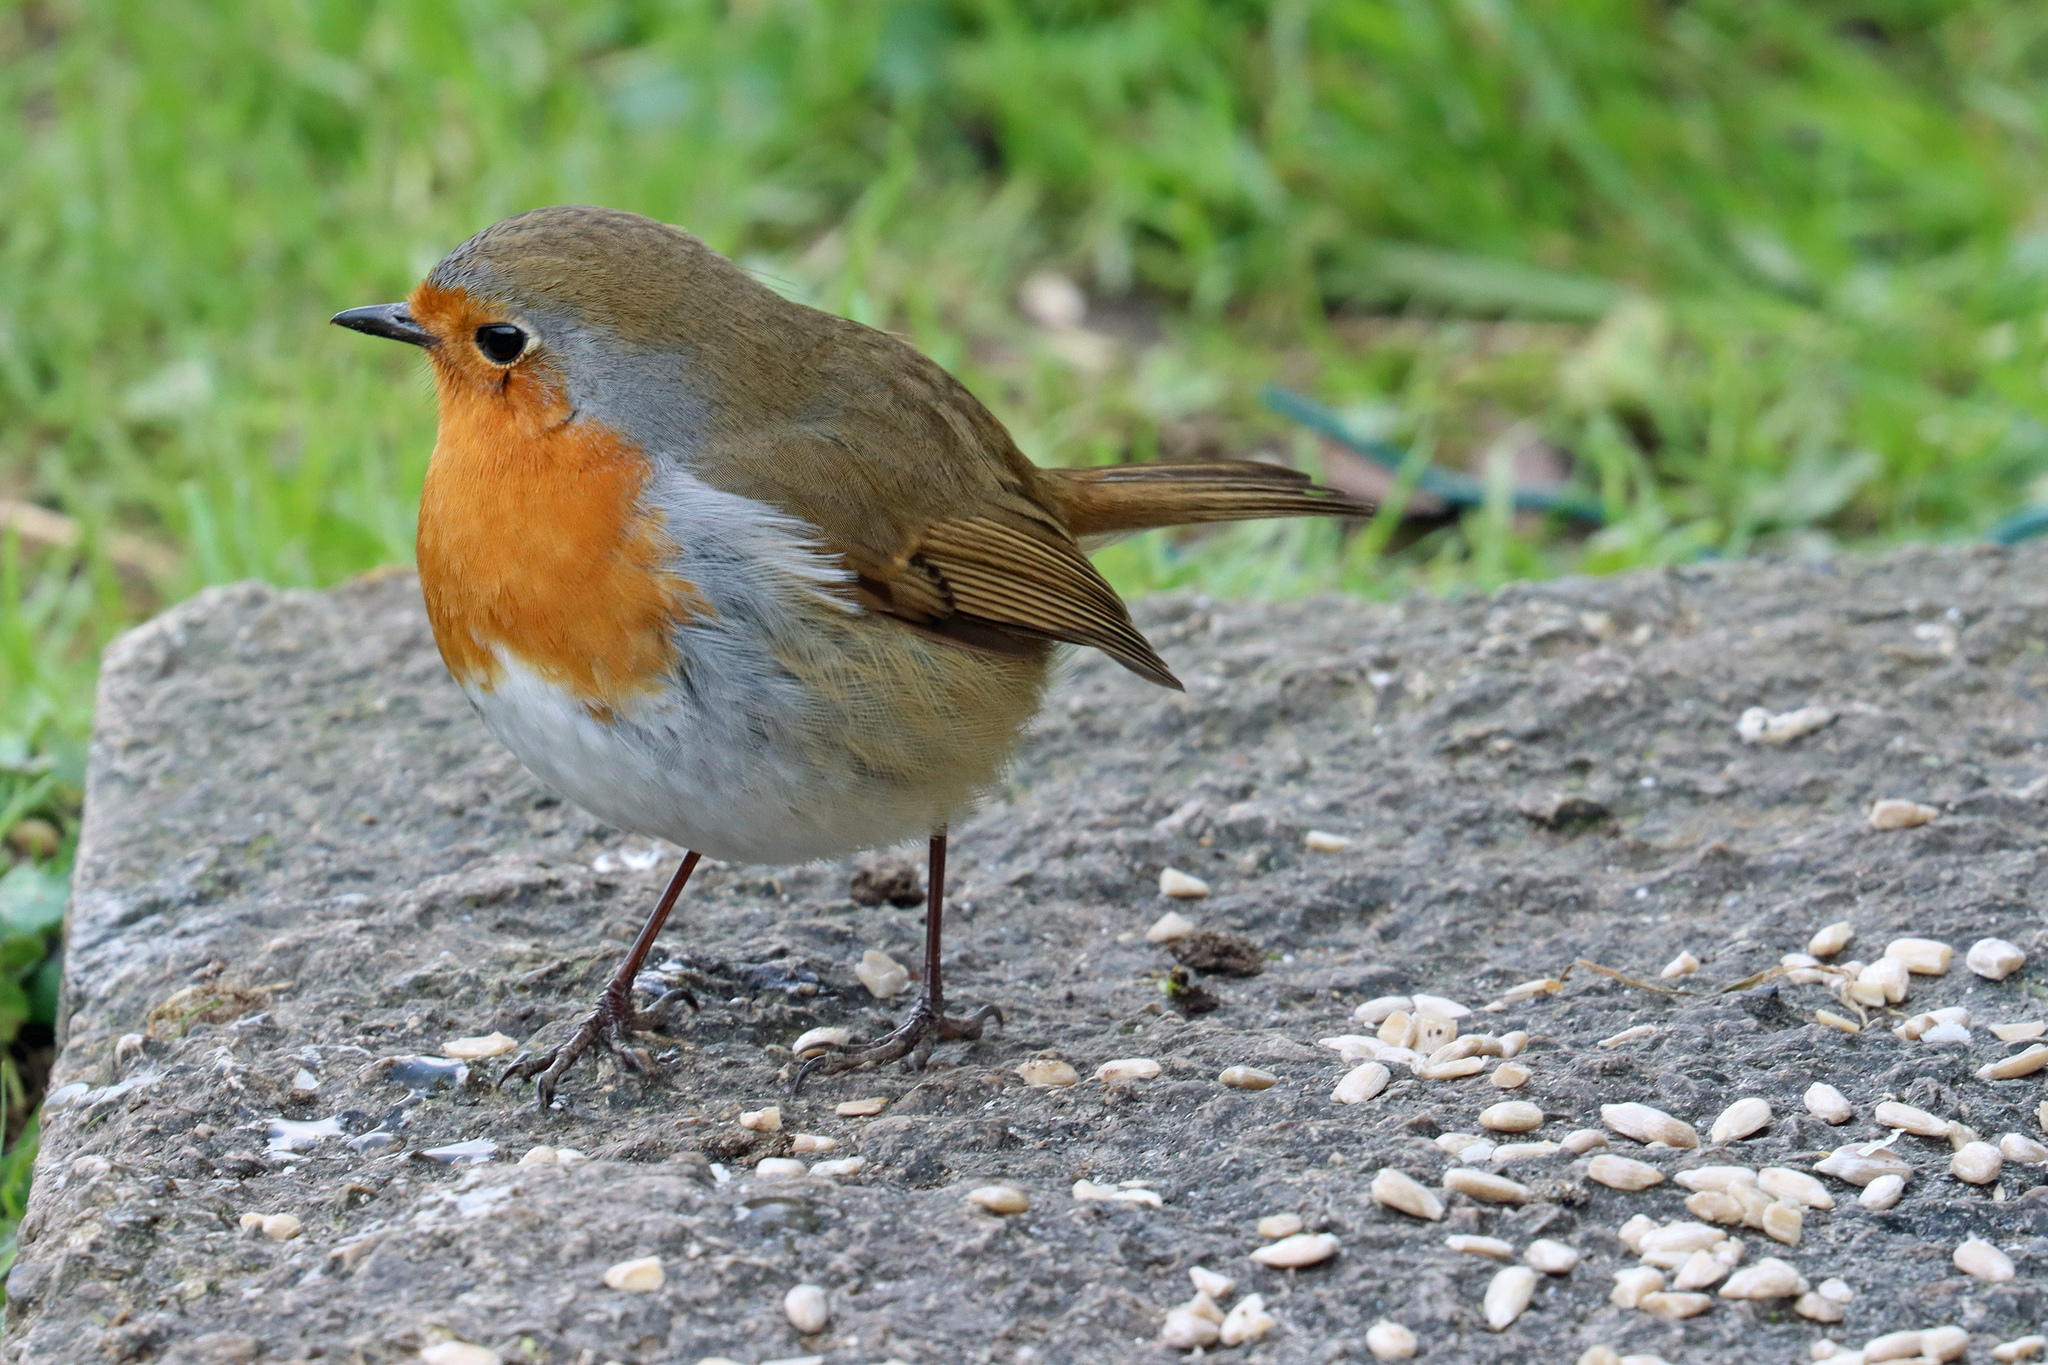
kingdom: Animalia
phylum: Chordata
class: Aves
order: Passeriformes
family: Muscicapidae
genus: Erithacus
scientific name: Erithacus rubecula
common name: European robin
